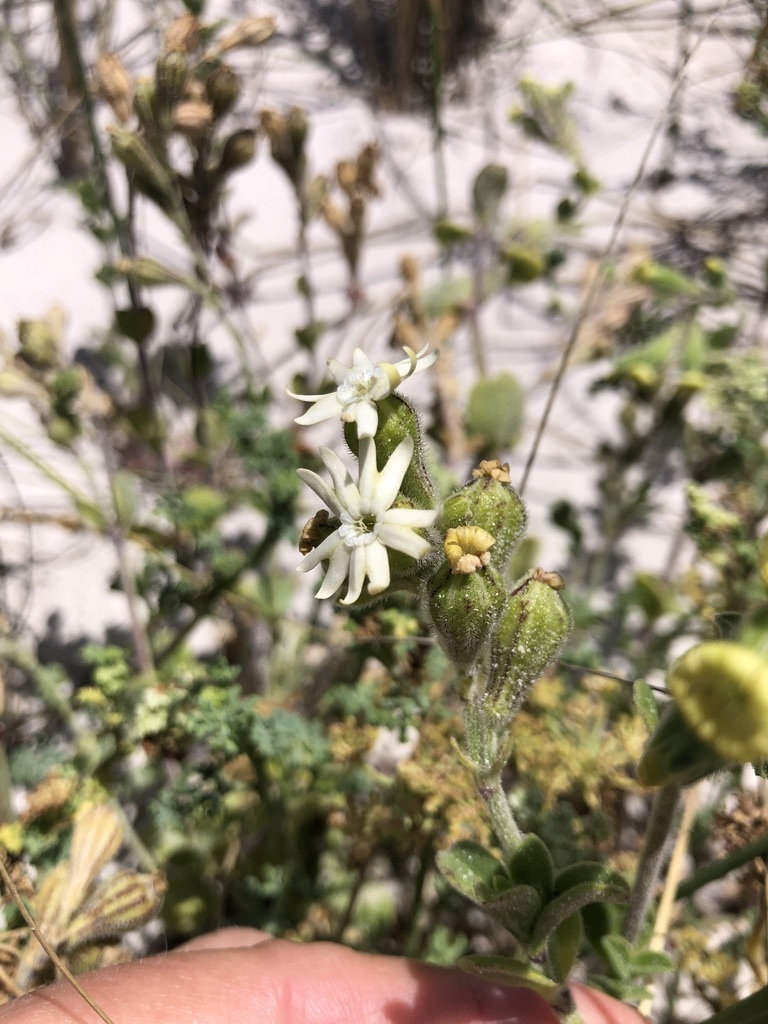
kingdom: Plantae
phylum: Tracheophyta
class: Magnoliopsida
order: Caryophyllales
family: Caryophyllaceae
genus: Silene
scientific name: Silene crassifolia
